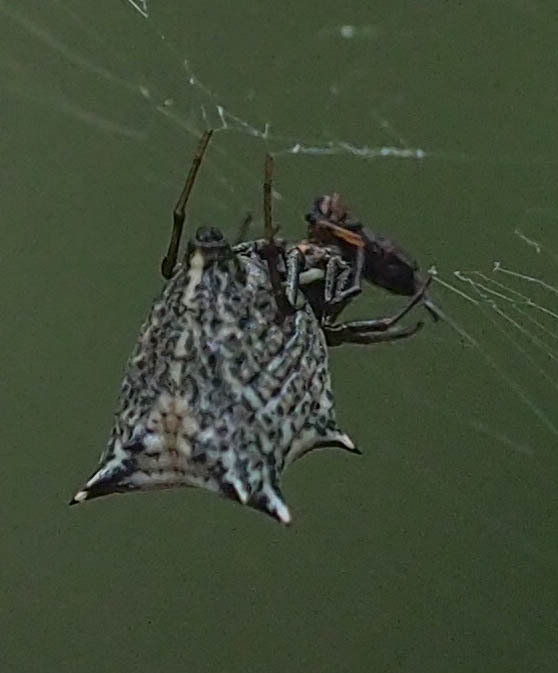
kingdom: Animalia
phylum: Arthropoda
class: Arachnida
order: Araneae
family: Araneidae
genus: Micrathena
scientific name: Micrathena gracilis
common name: Orb weavers
